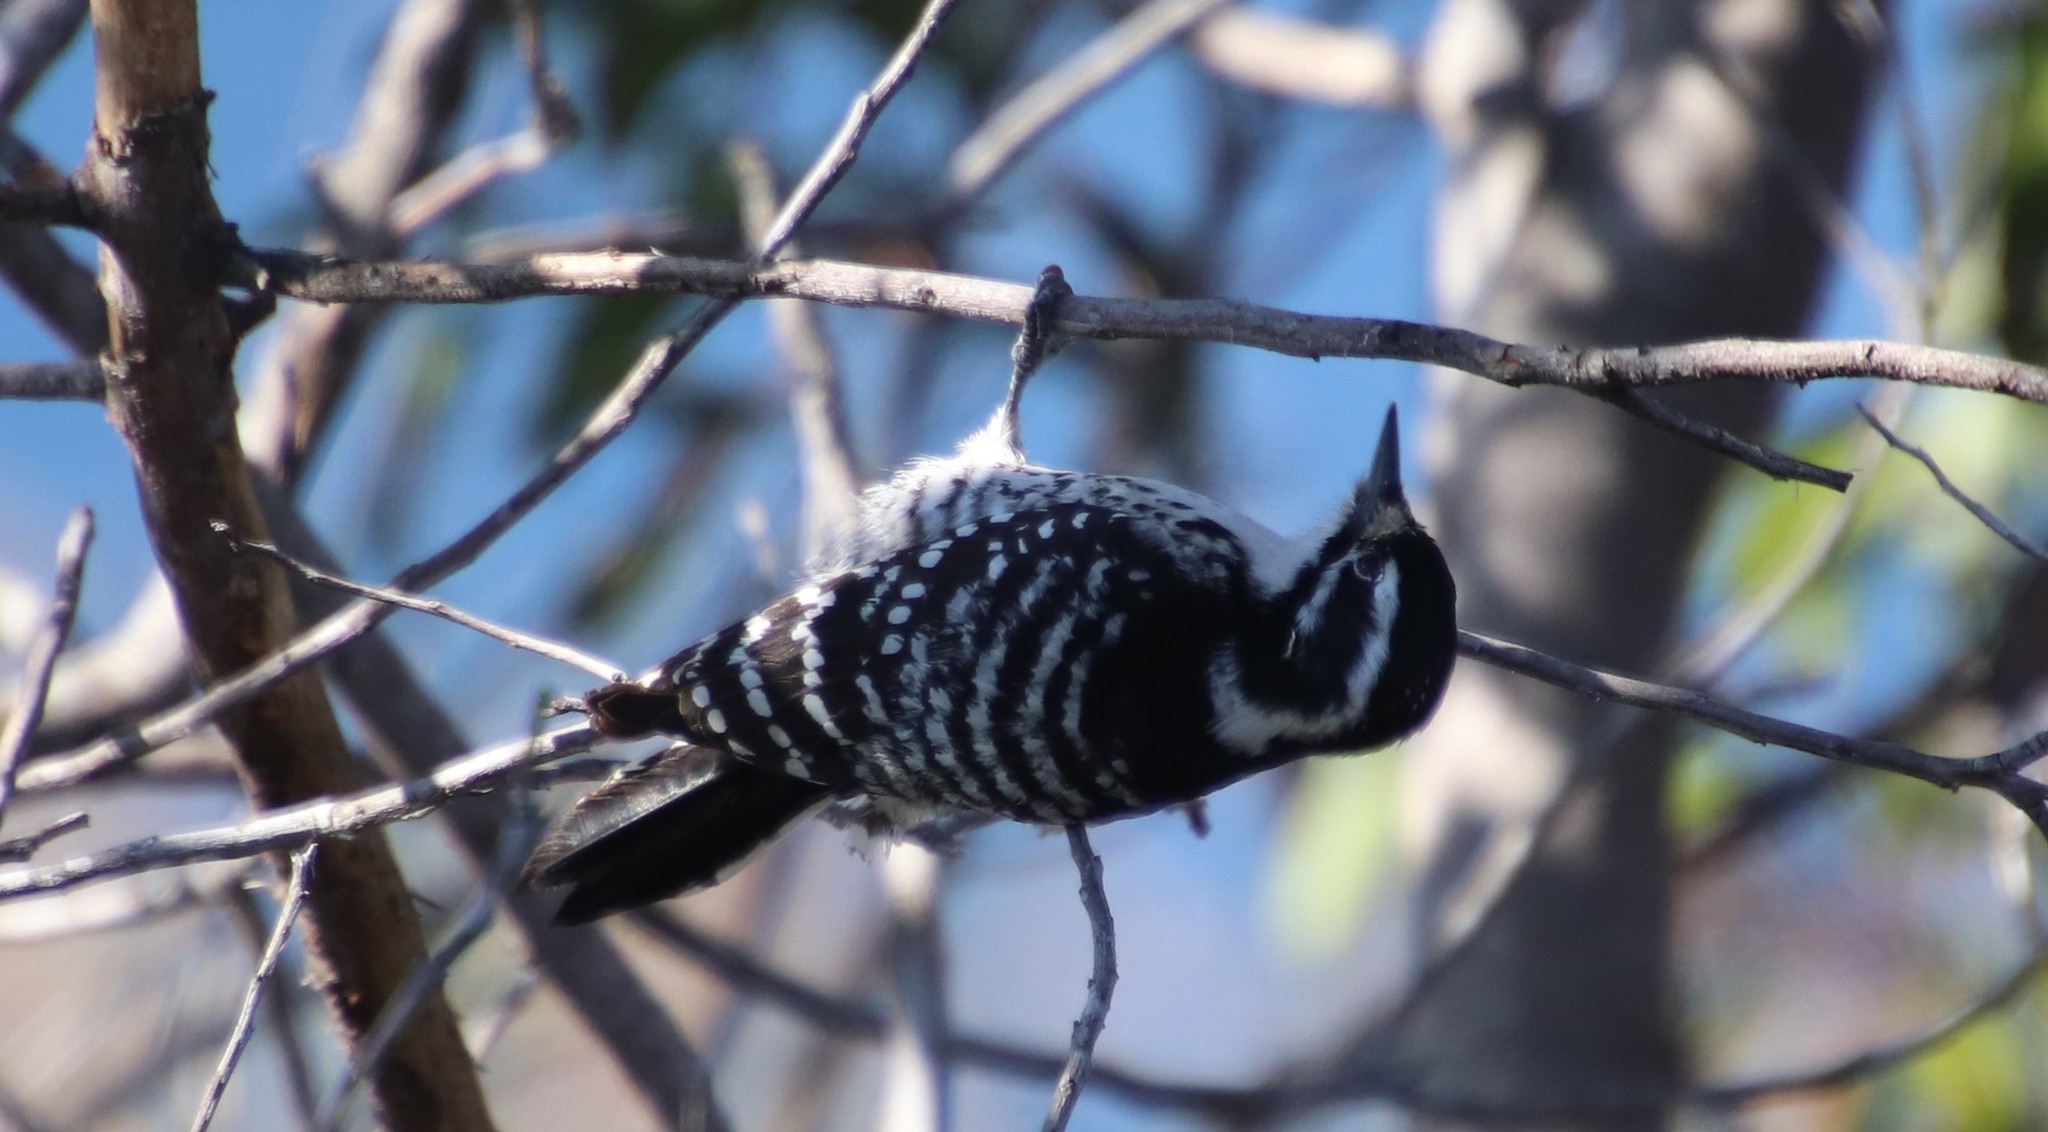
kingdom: Animalia
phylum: Chordata
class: Aves
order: Piciformes
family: Picidae
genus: Dryobates
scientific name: Dryobates nuttallii
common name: Nuttall's woodpecker
